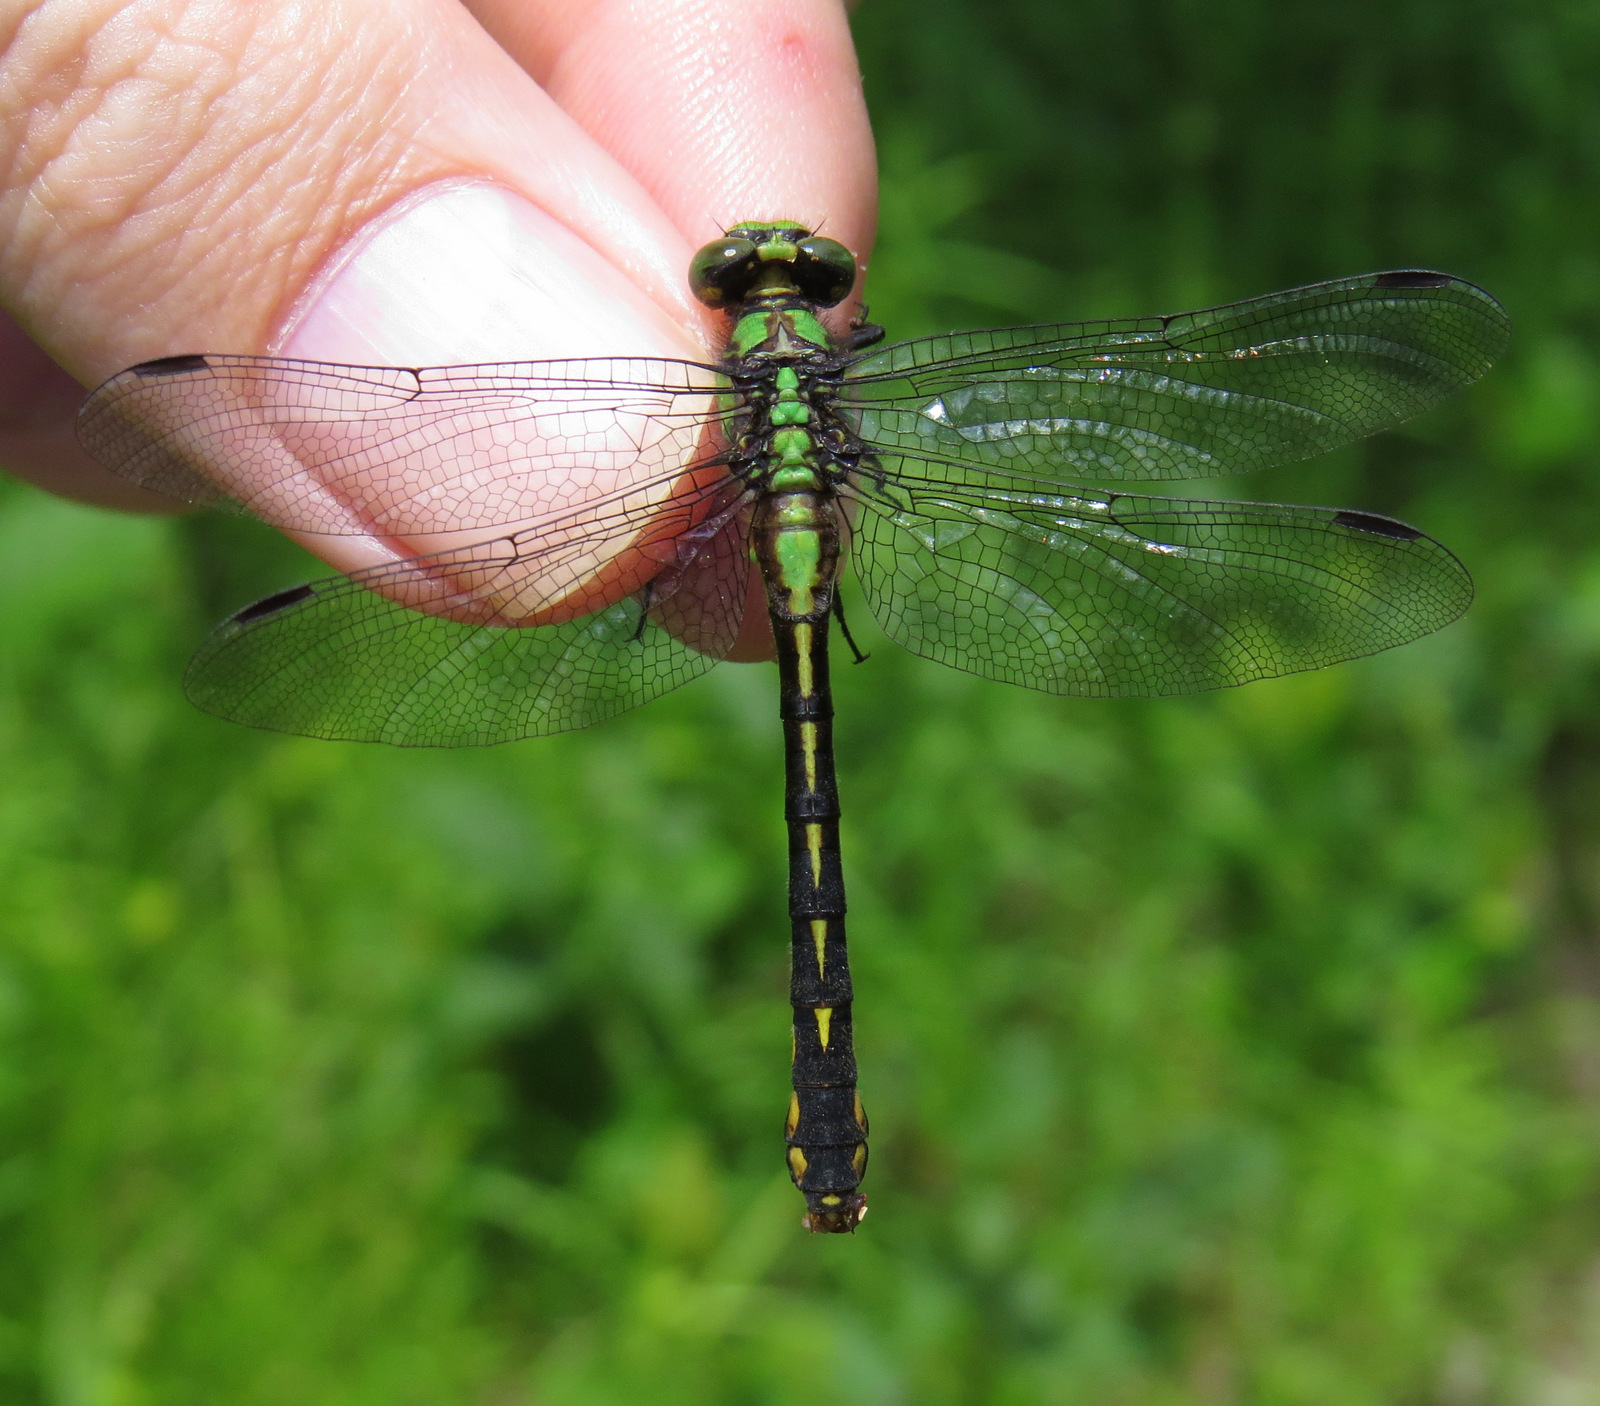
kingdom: Animalia
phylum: Arthropoda
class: Insecta
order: Odonata
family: Gomphidae
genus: Ophiogomphus
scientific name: Ophiogomphus mainensis
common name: Maine snaketail
